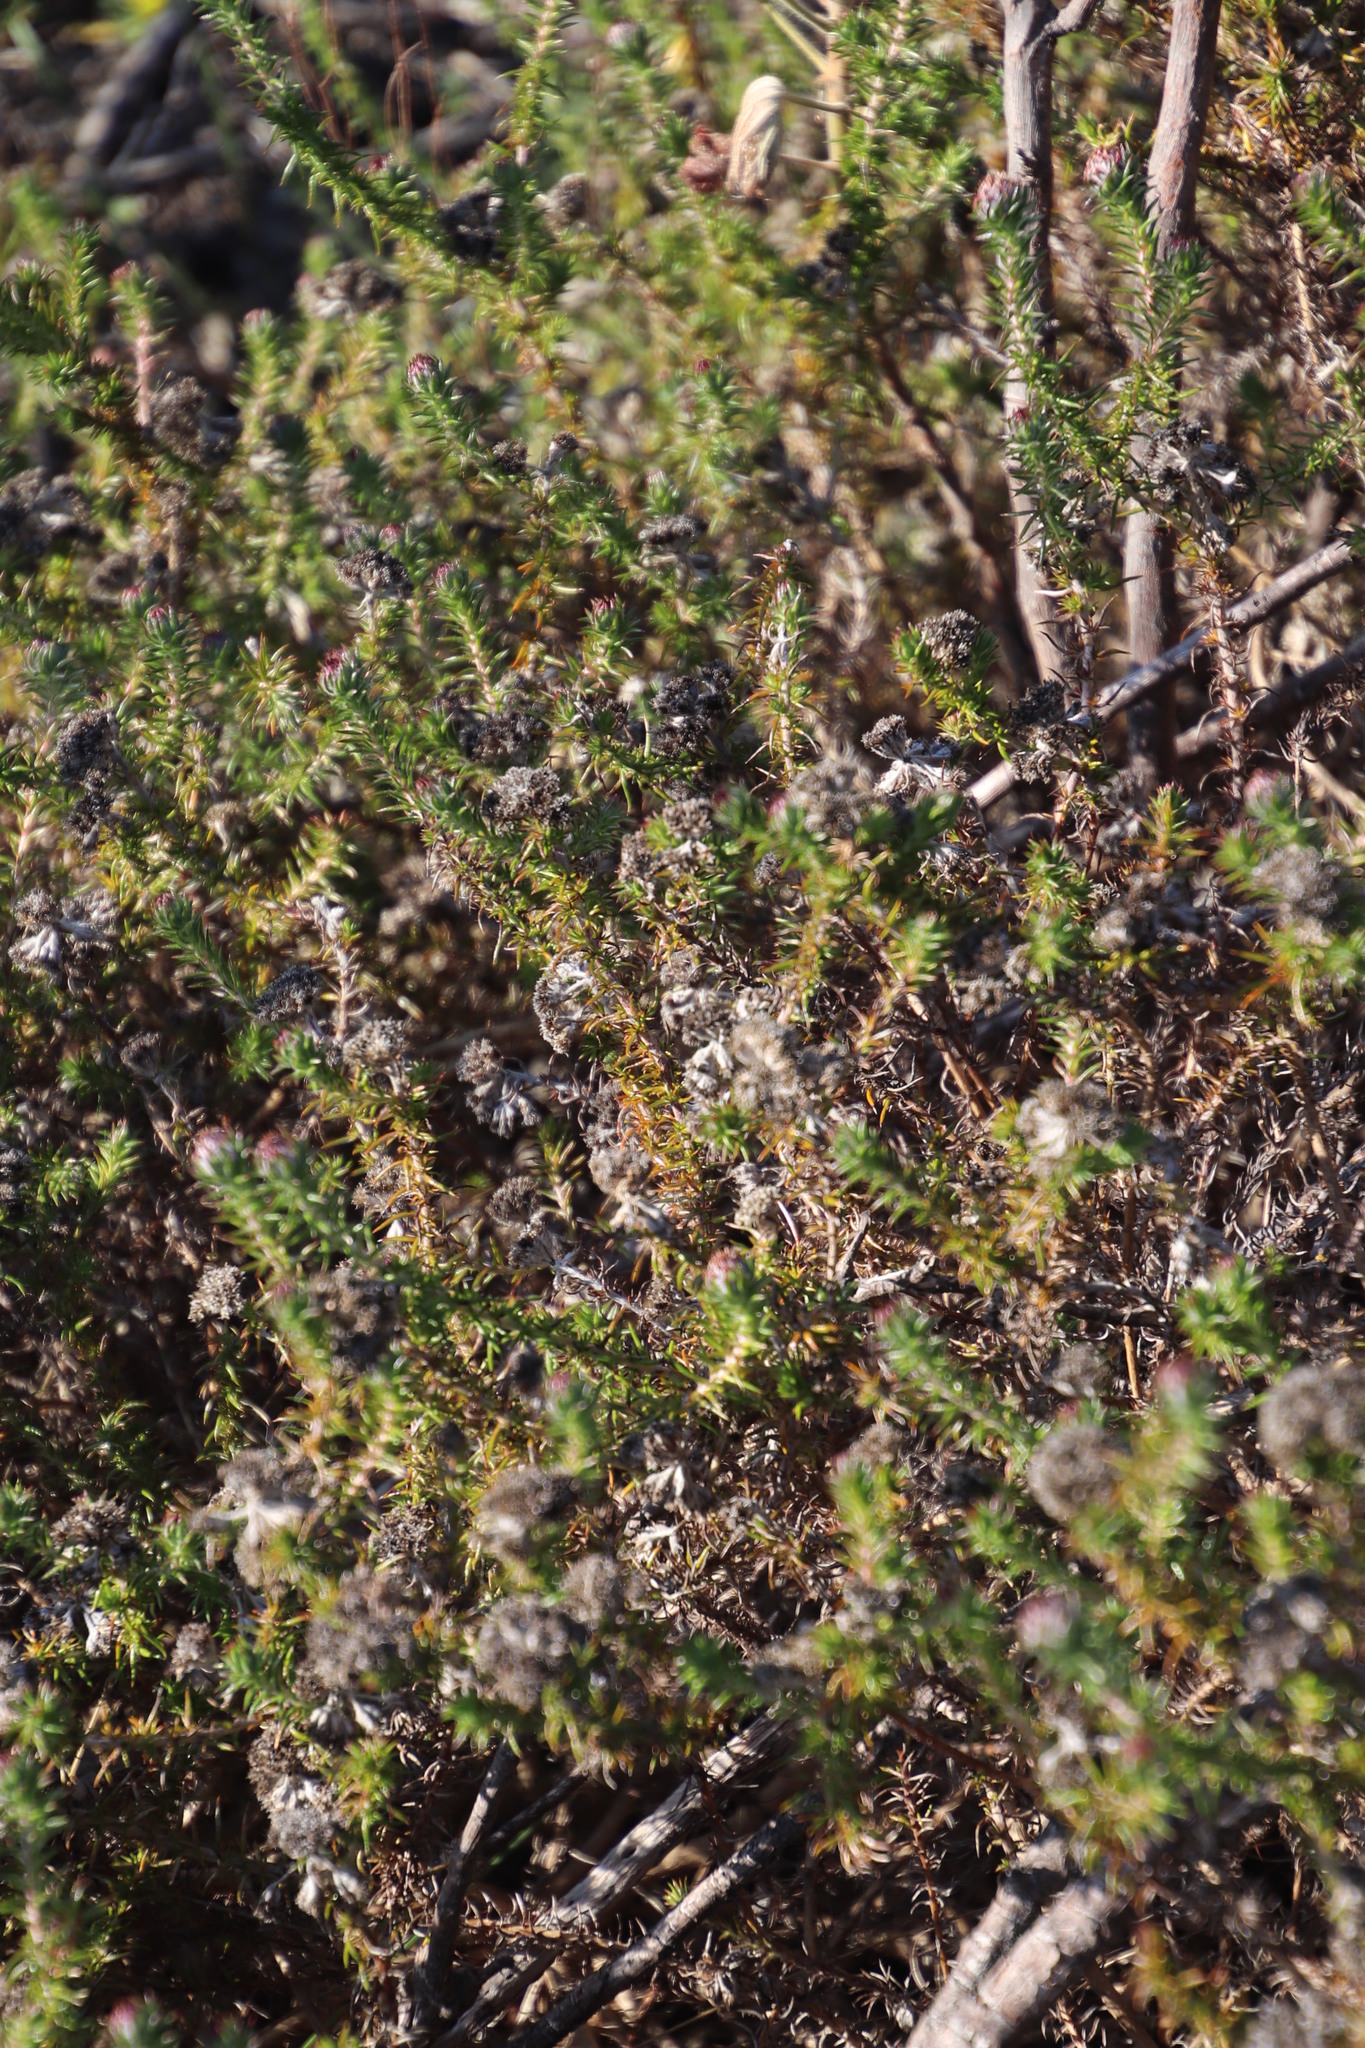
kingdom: Plantae
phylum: Tracheophyta
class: Magnoliopsida
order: Asterales
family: Asteraceae
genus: Metalasia
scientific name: Metalasia pulchella
